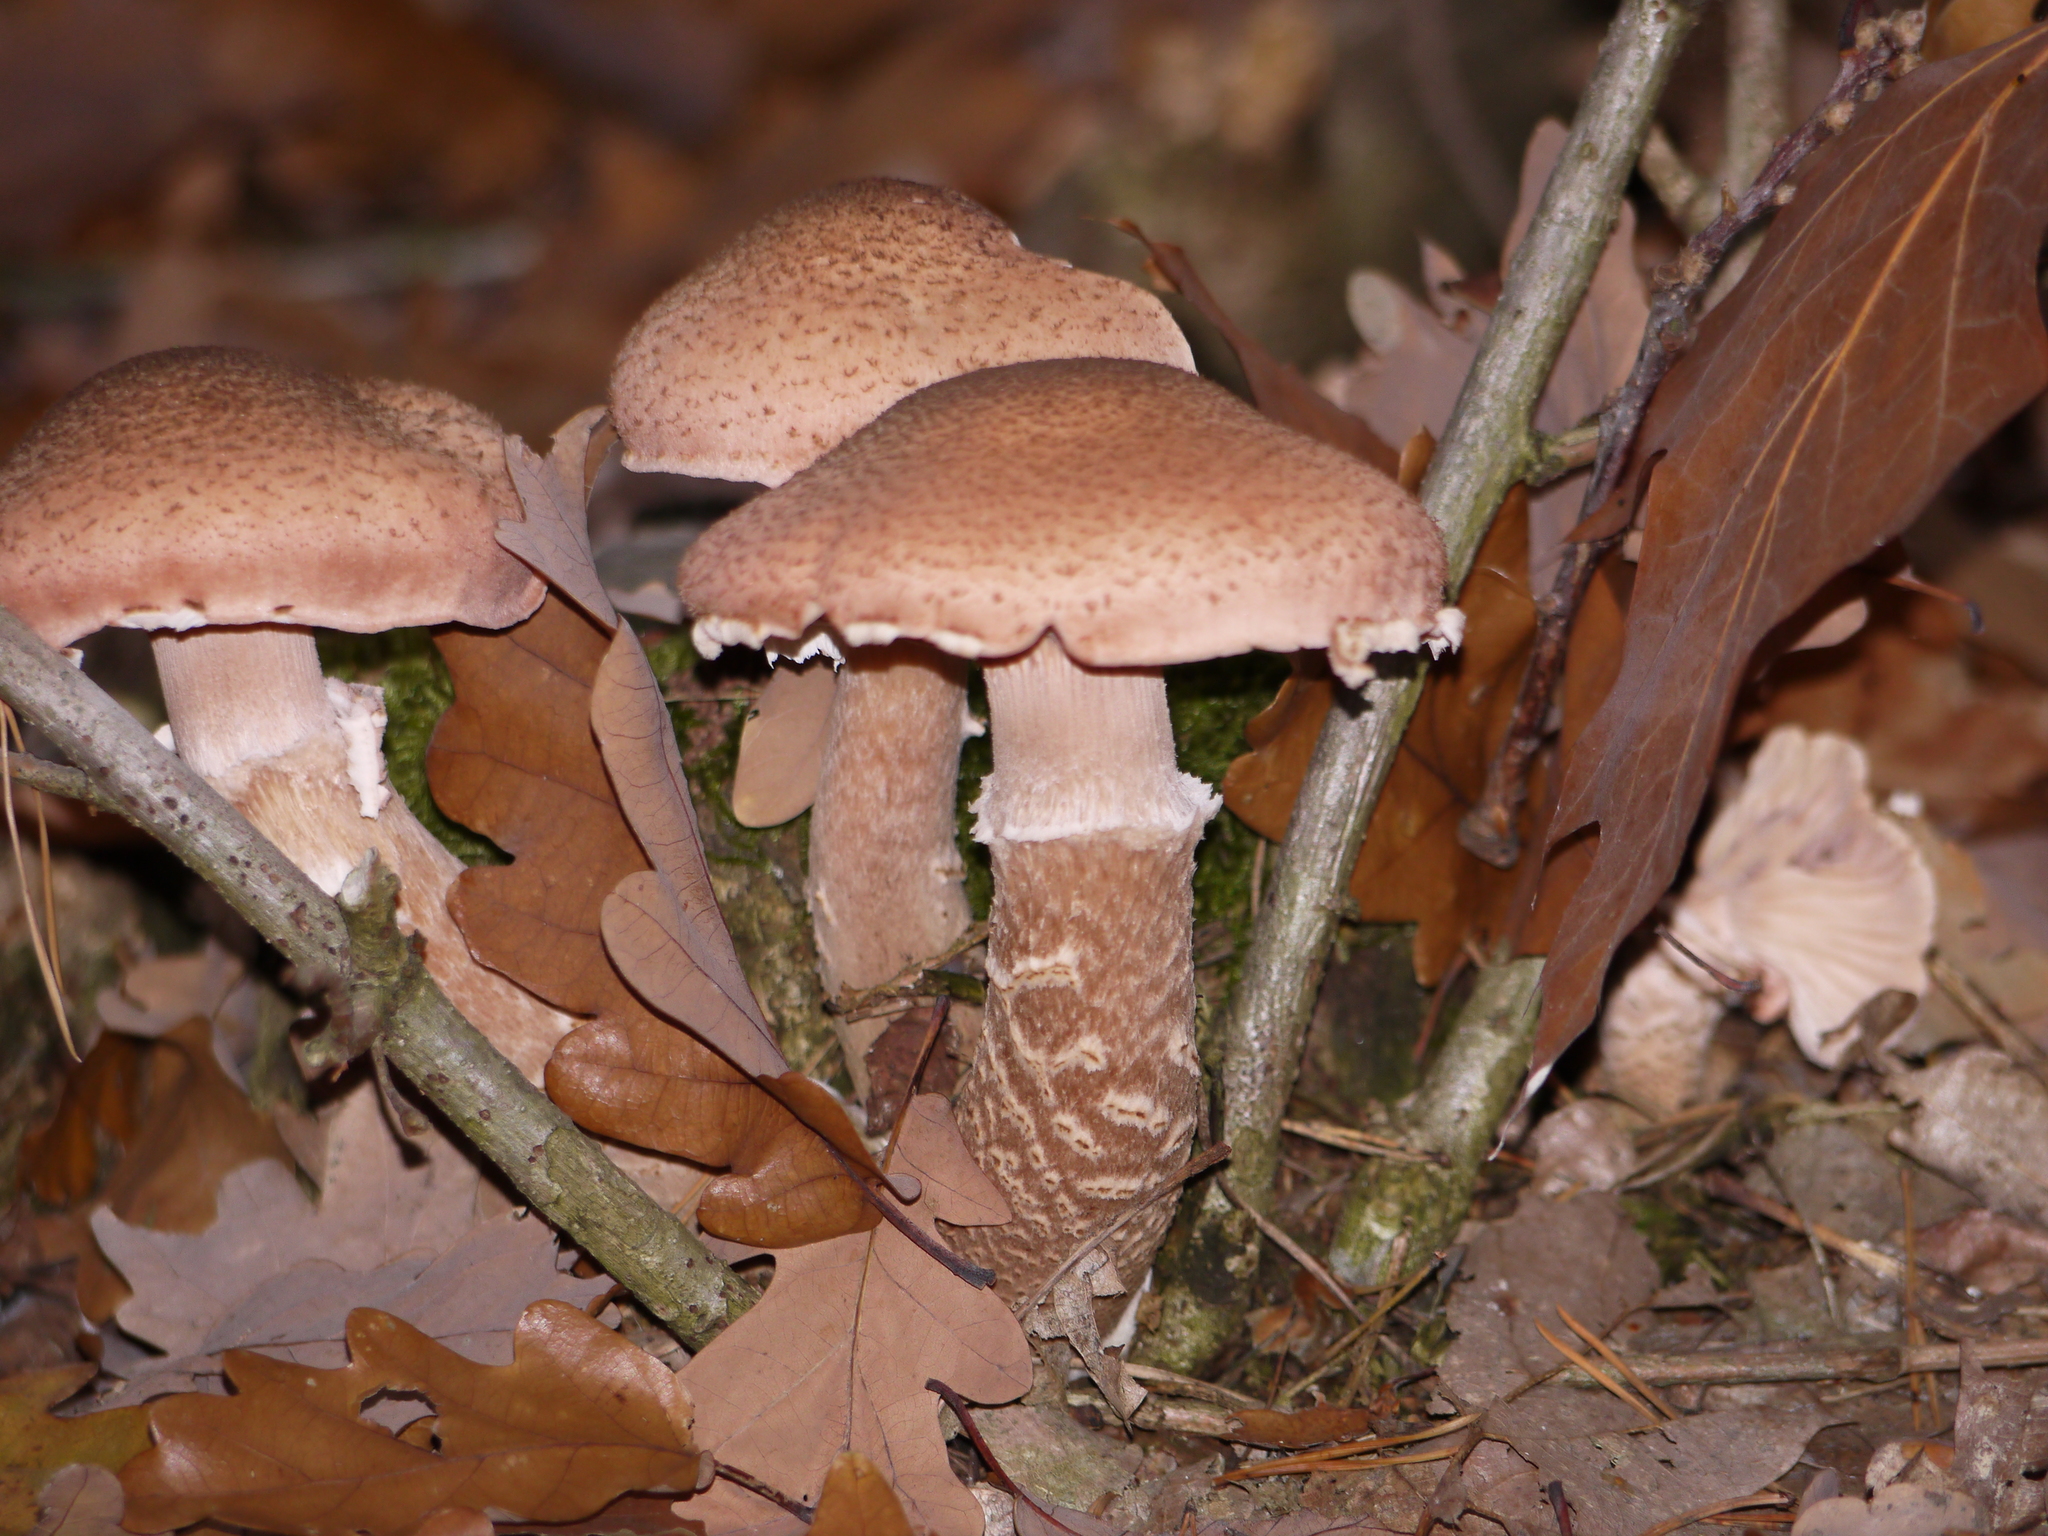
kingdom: Fungi
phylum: Basidiomycota
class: Agaricomycetes
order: Agaricales
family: Physalacriaceae
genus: Armillaria
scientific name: Armillaria mellea
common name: Honey fungus
